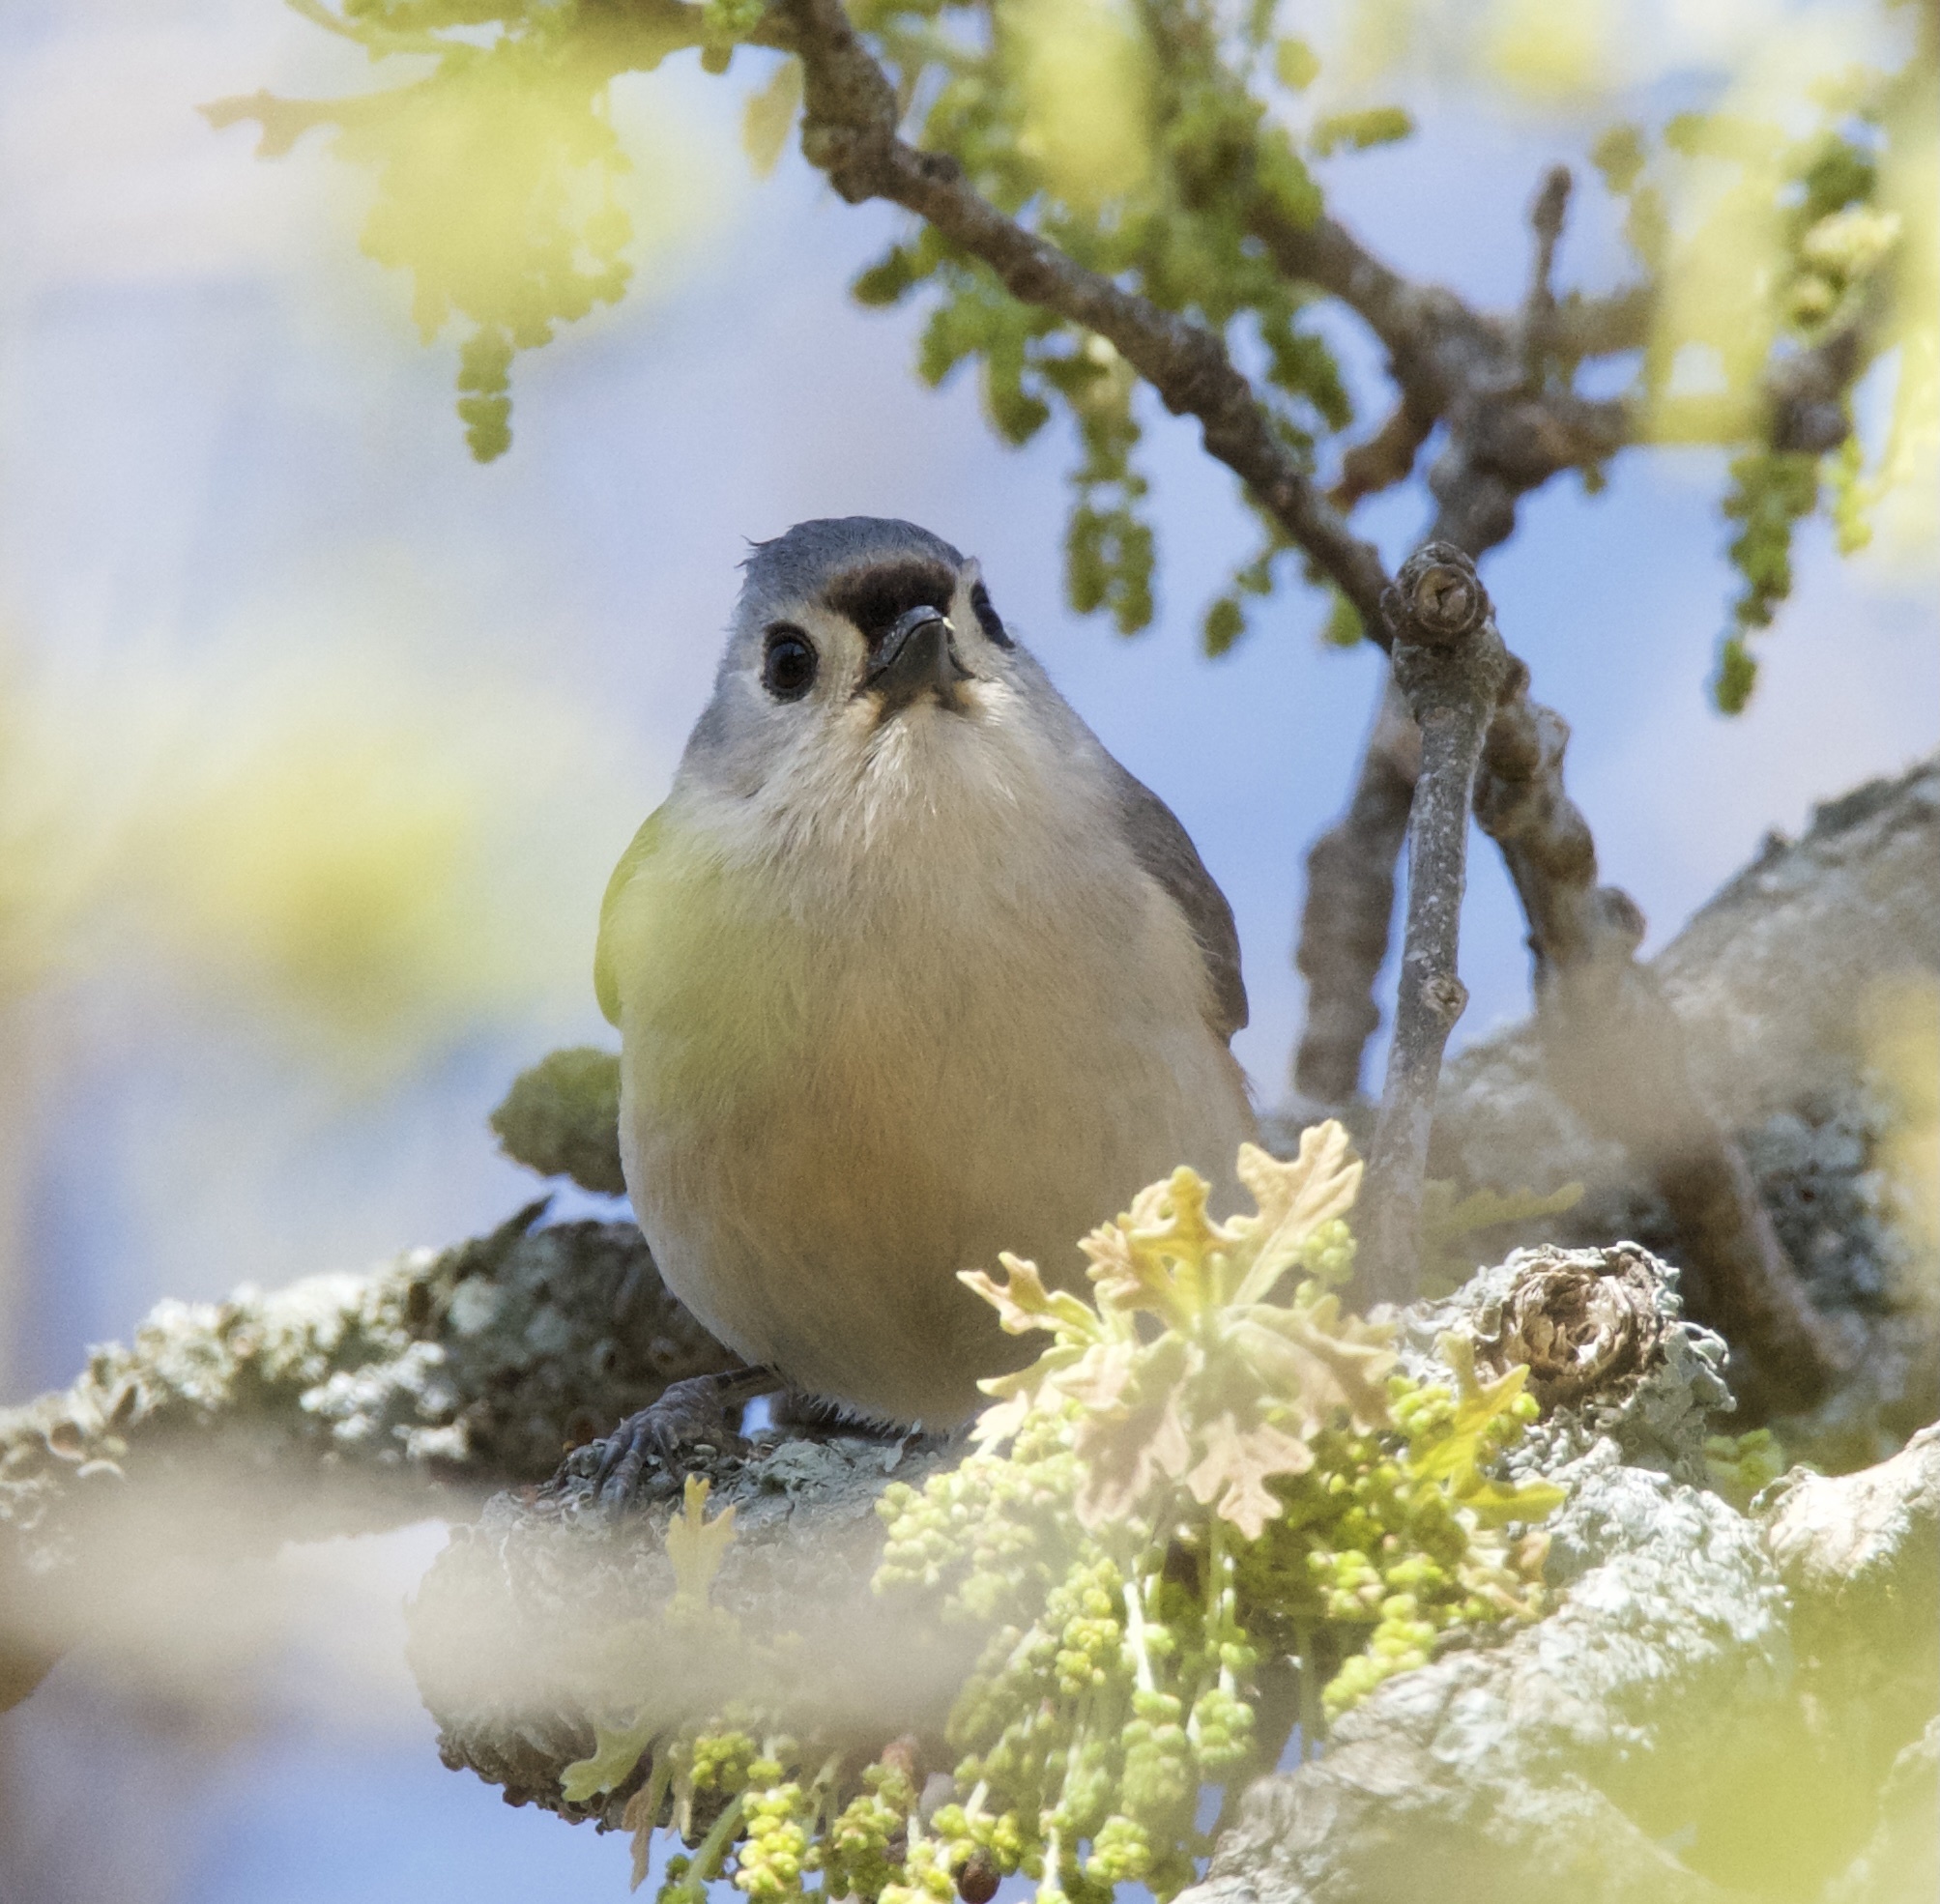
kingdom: Animalia
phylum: Chordata
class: Aves
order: Passeriformes
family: Paridae
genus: Baeolophus
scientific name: Baeolophus bicolor
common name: Tufted titmouse
